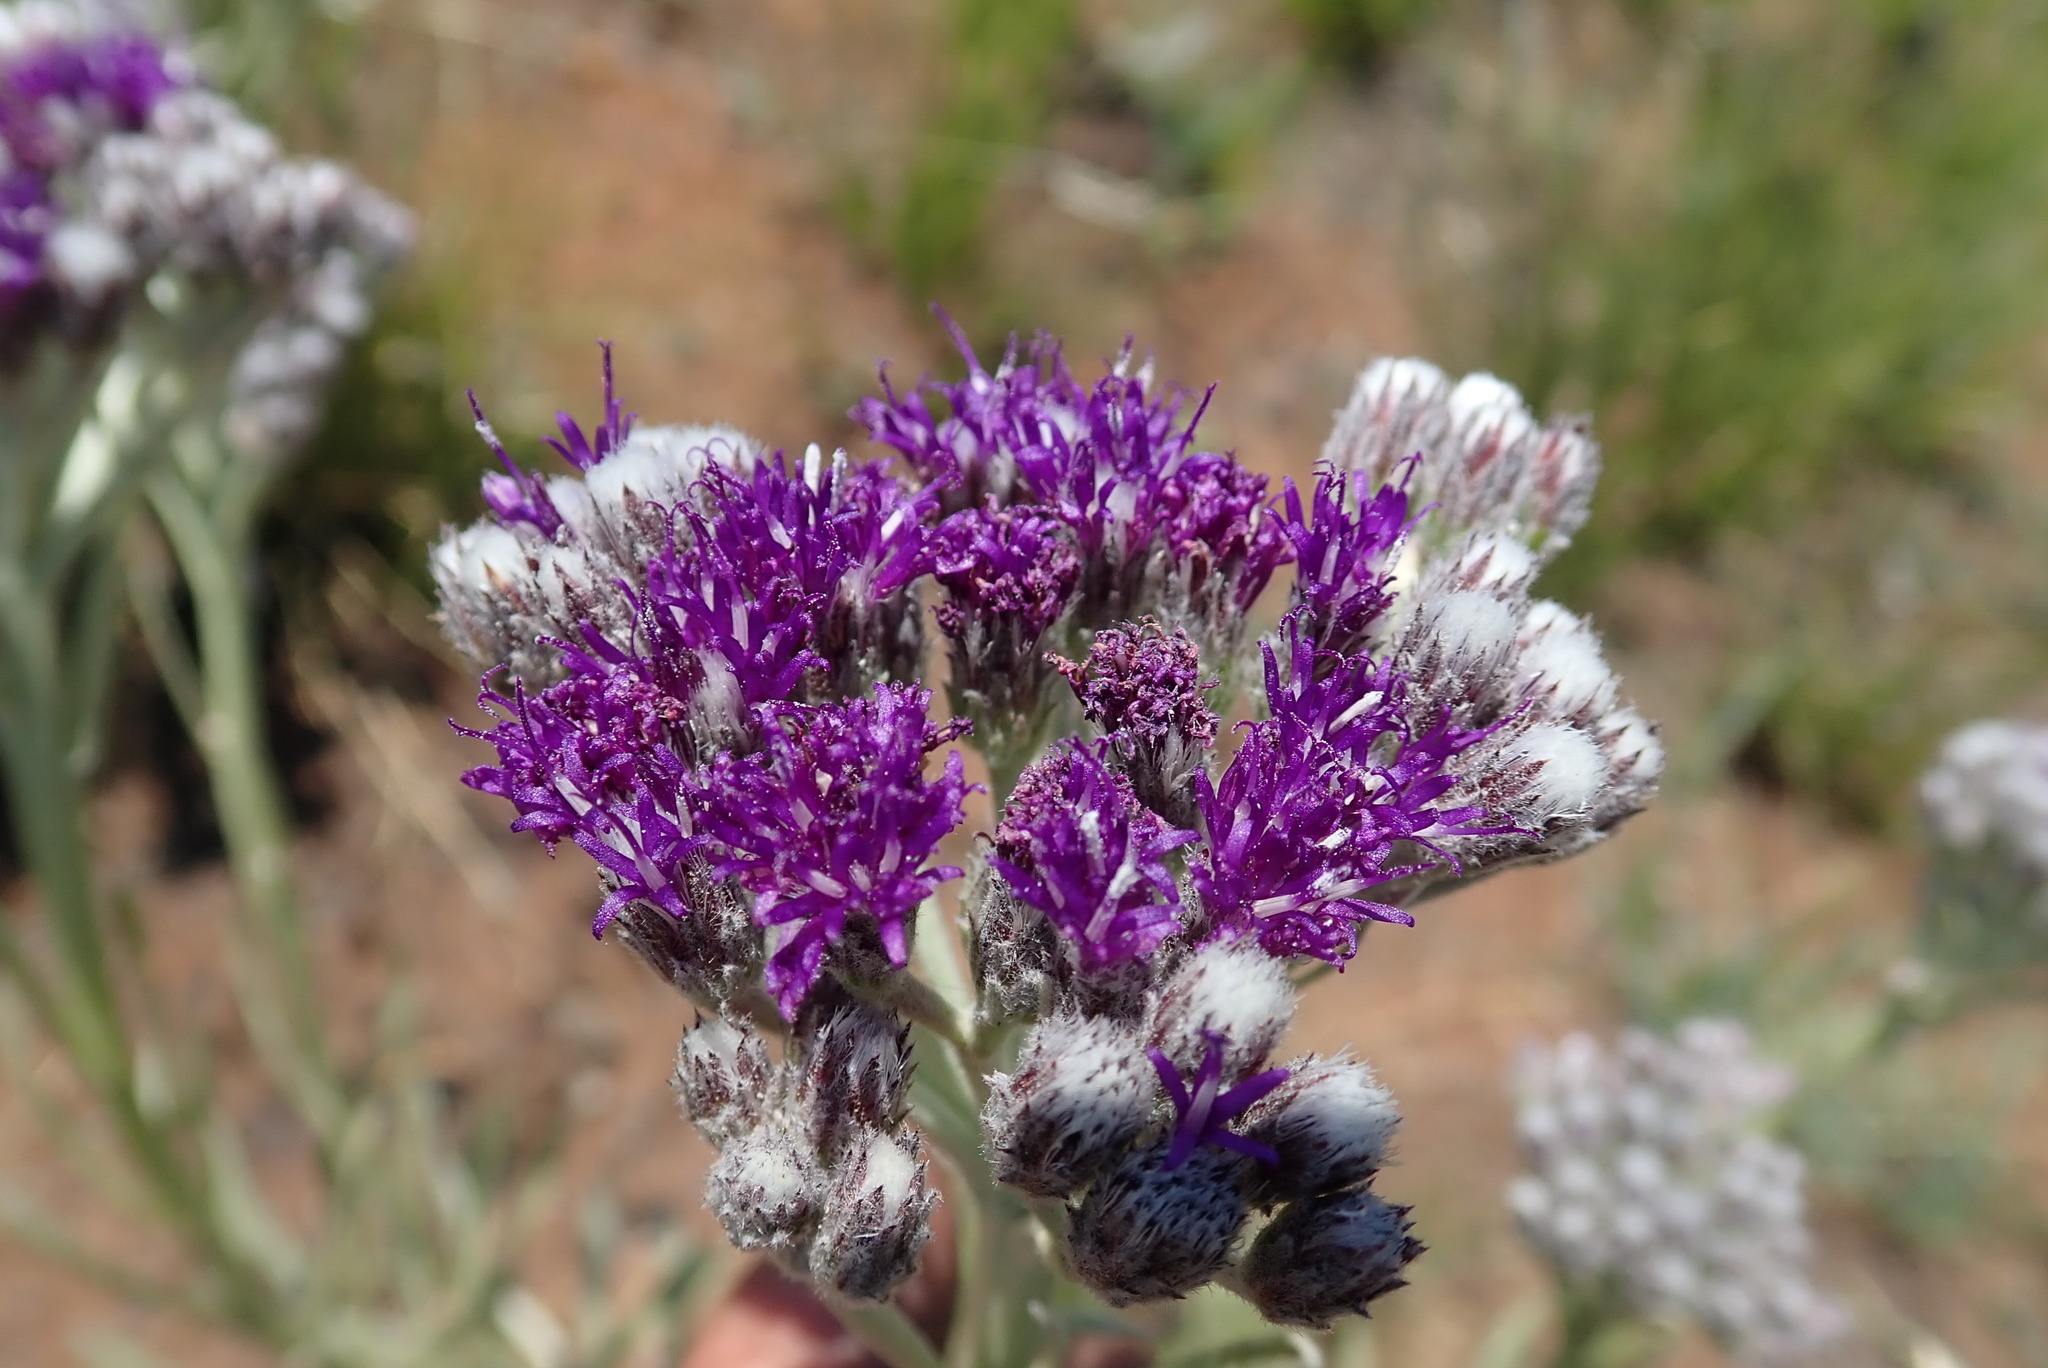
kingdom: Plantae
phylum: Tracheophyta
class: Magnoliopsida
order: Asterales
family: Asteraceae
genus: Hilliardiella
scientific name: Hilliardiella aristata
